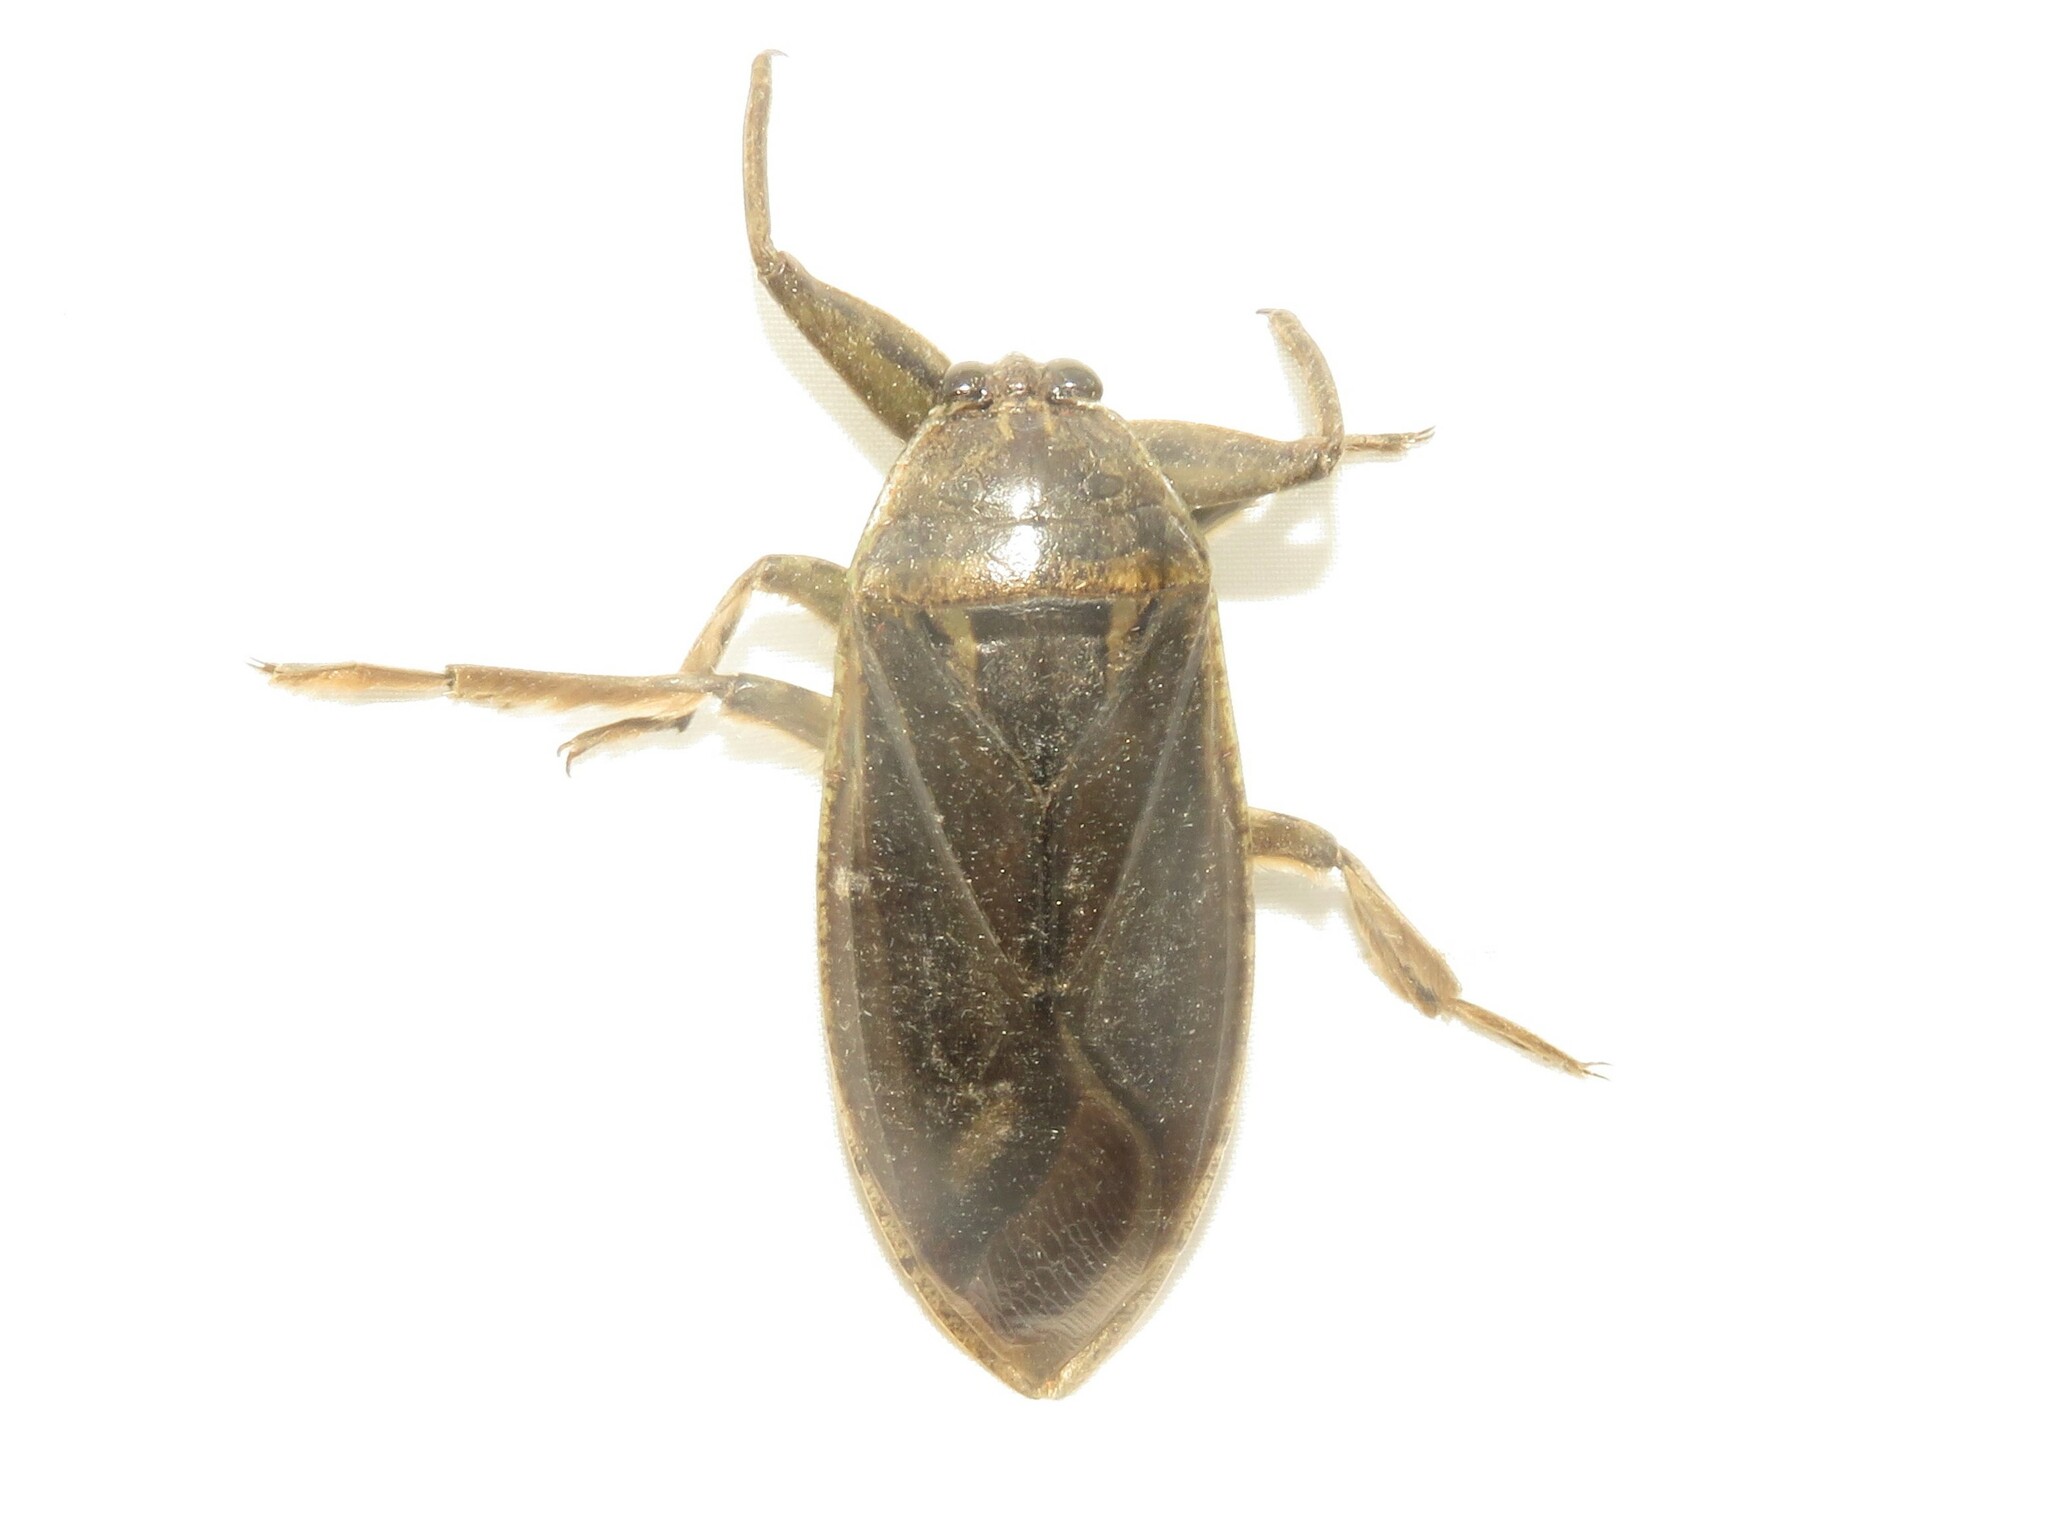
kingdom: Animalia
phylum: Arthropoda
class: Insecta
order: Hemiptera
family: Belostomatidae
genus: Lethocerus
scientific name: Lethocerus americanus
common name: Giant water bug
